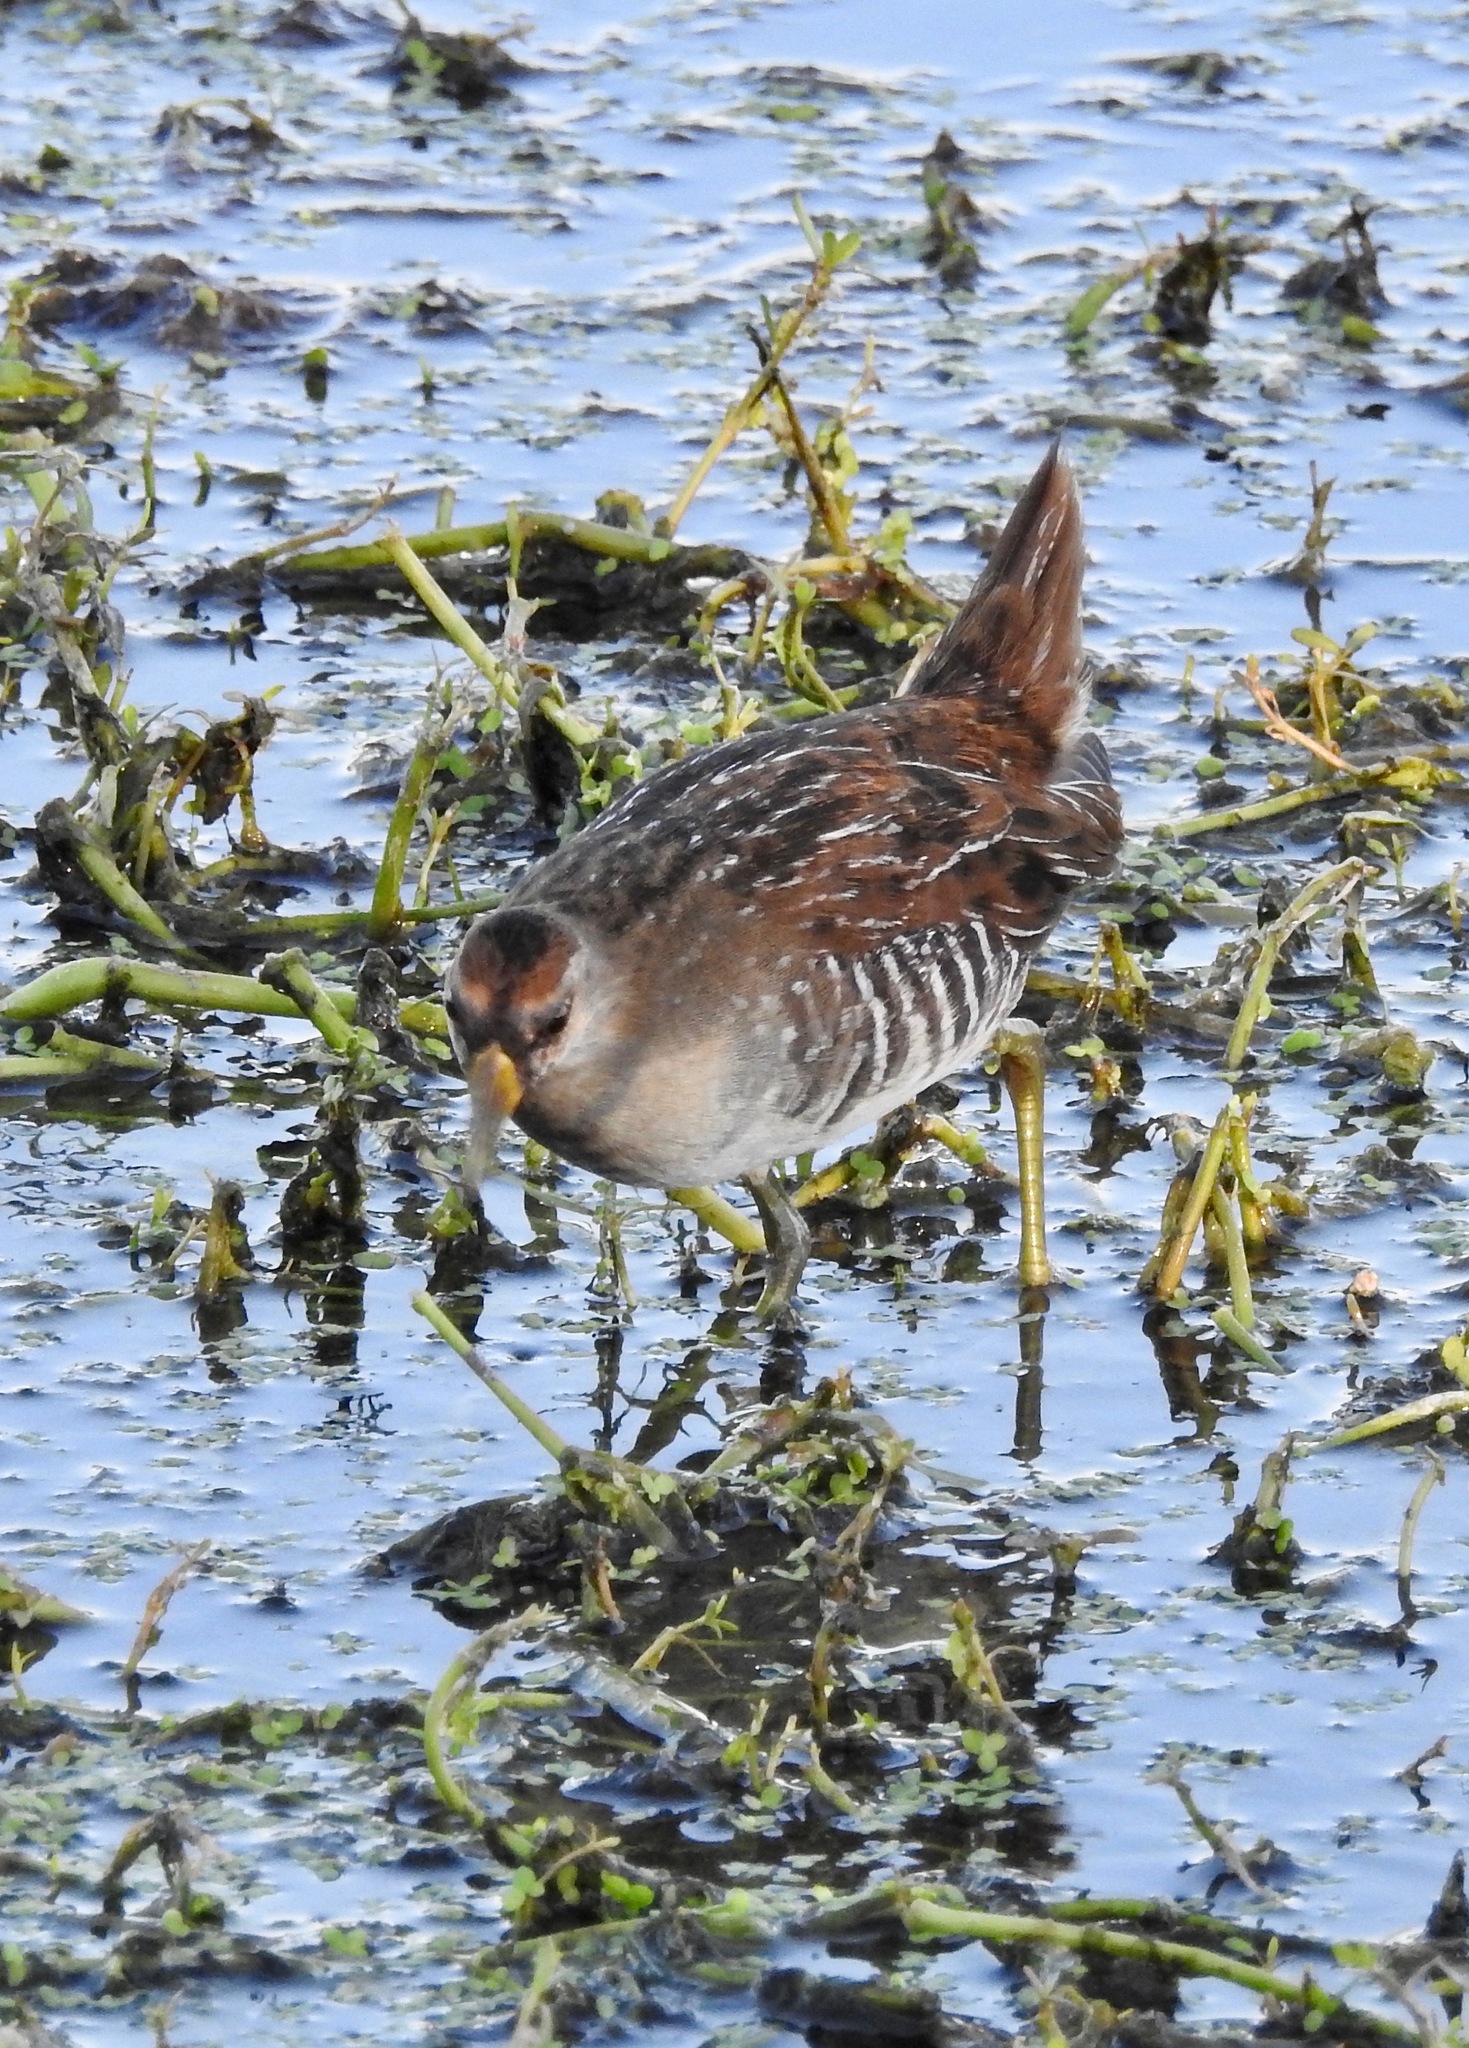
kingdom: Animalia
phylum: Chordata
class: Aves
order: Gruiformes
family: Rallidae
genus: Porzana
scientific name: Porzana carolina
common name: Sora
